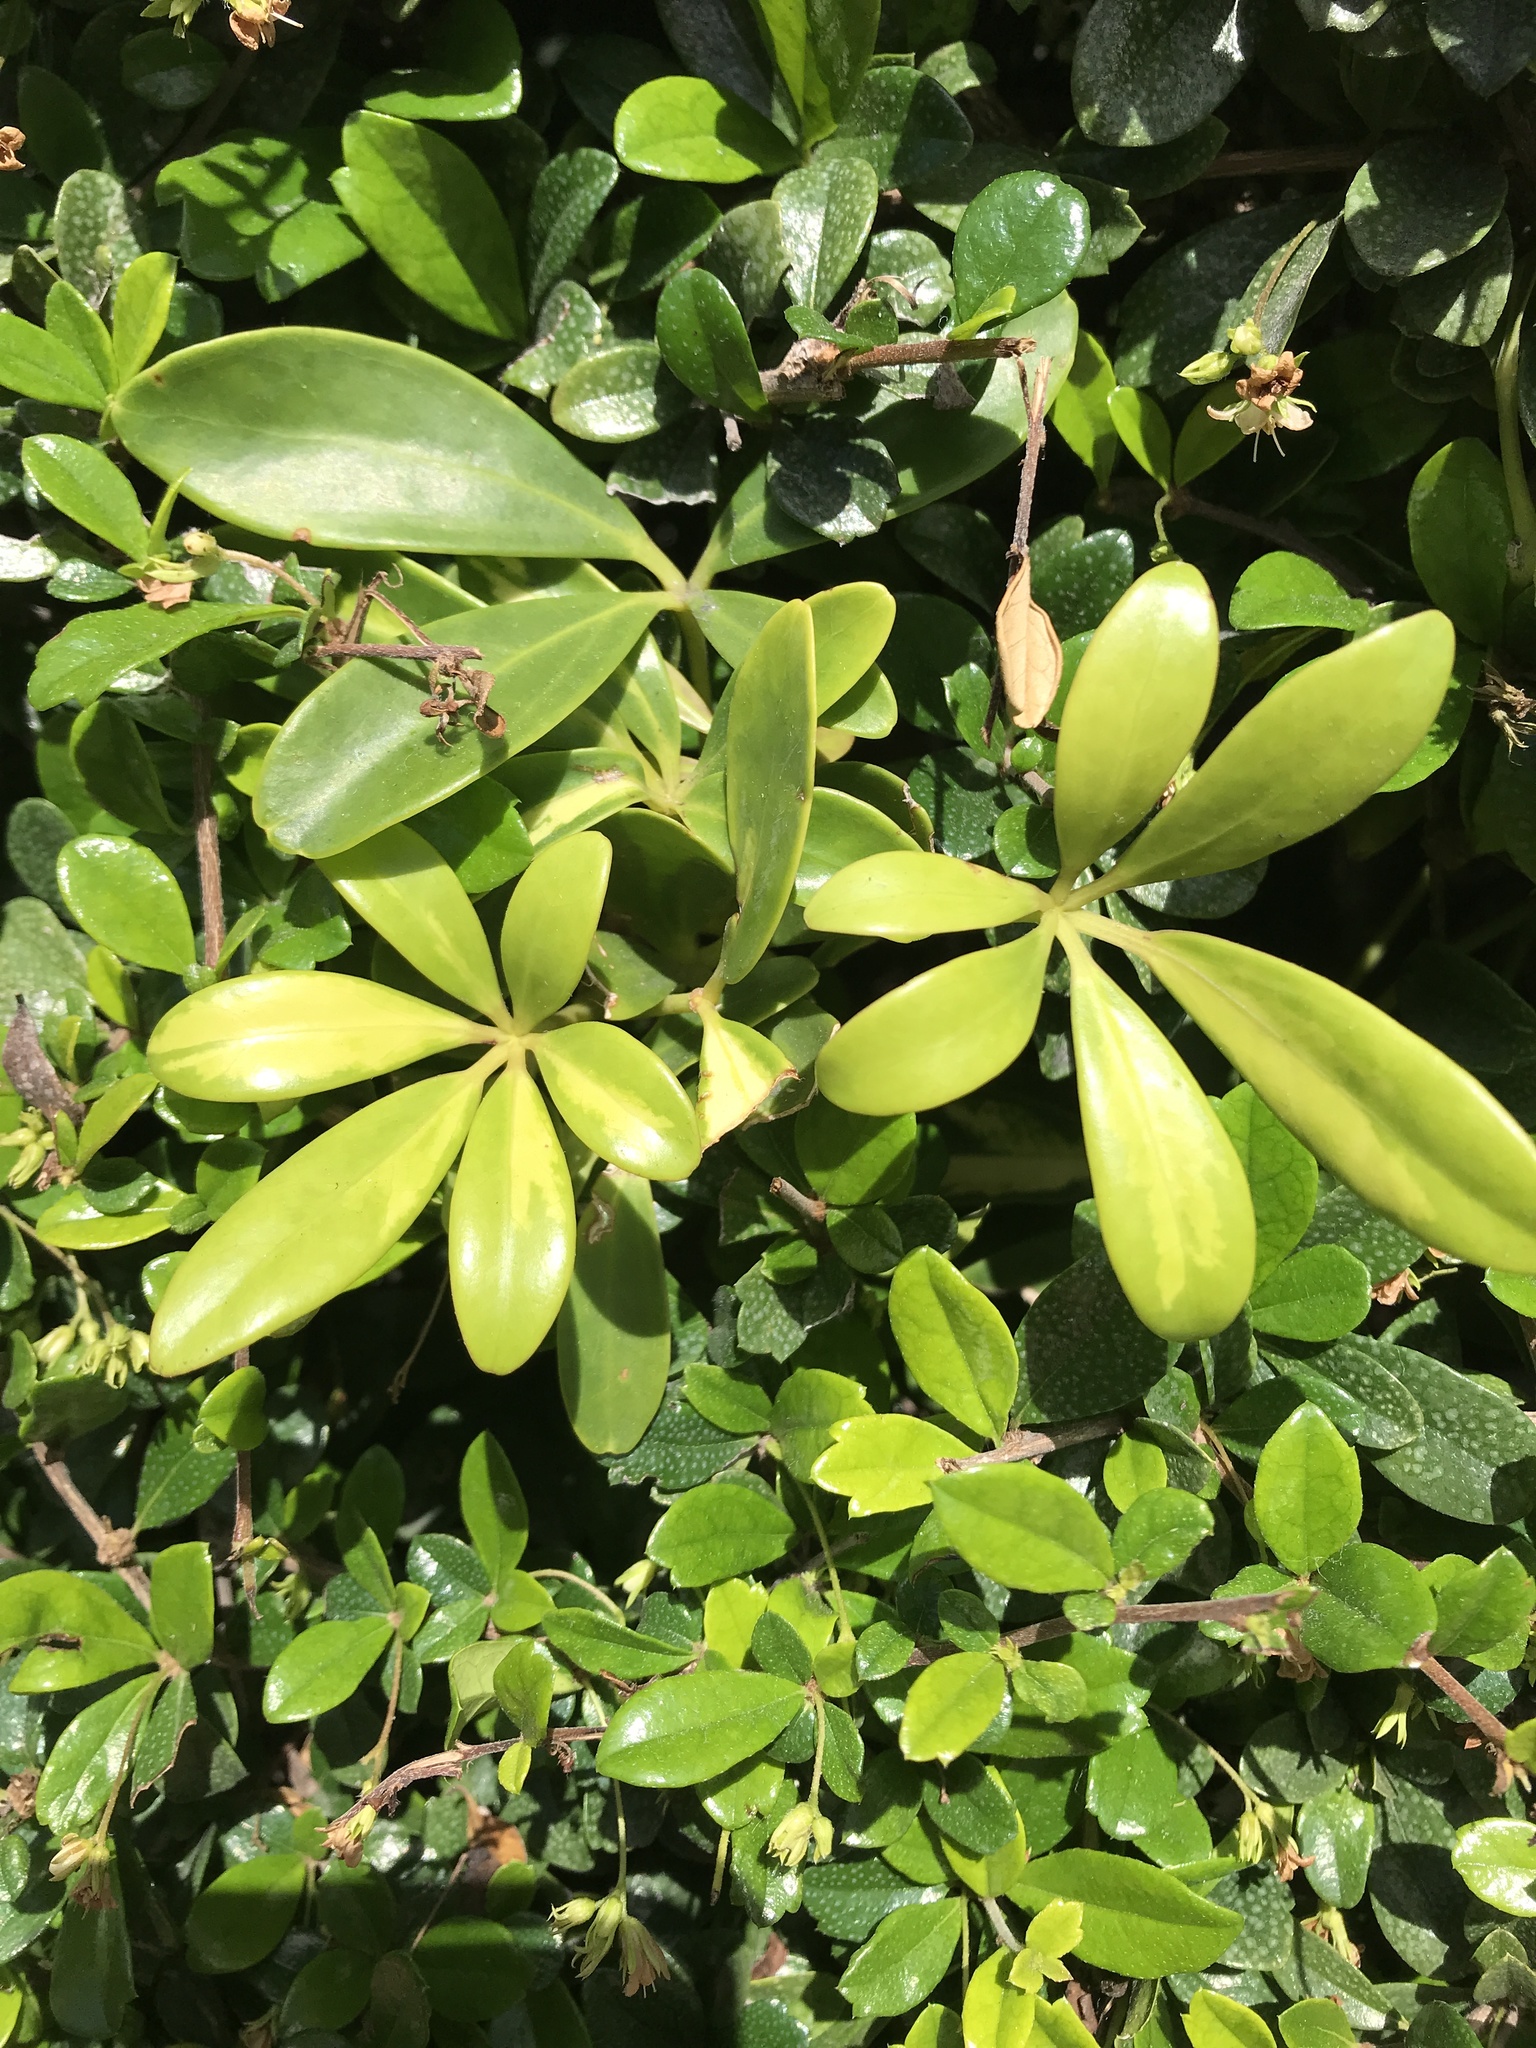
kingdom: Plantae
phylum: Tracheophyta
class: Magnoliopsida
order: Apiales
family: Araliaceae
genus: Heptapleurum
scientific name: Heptapleurum arboricola
